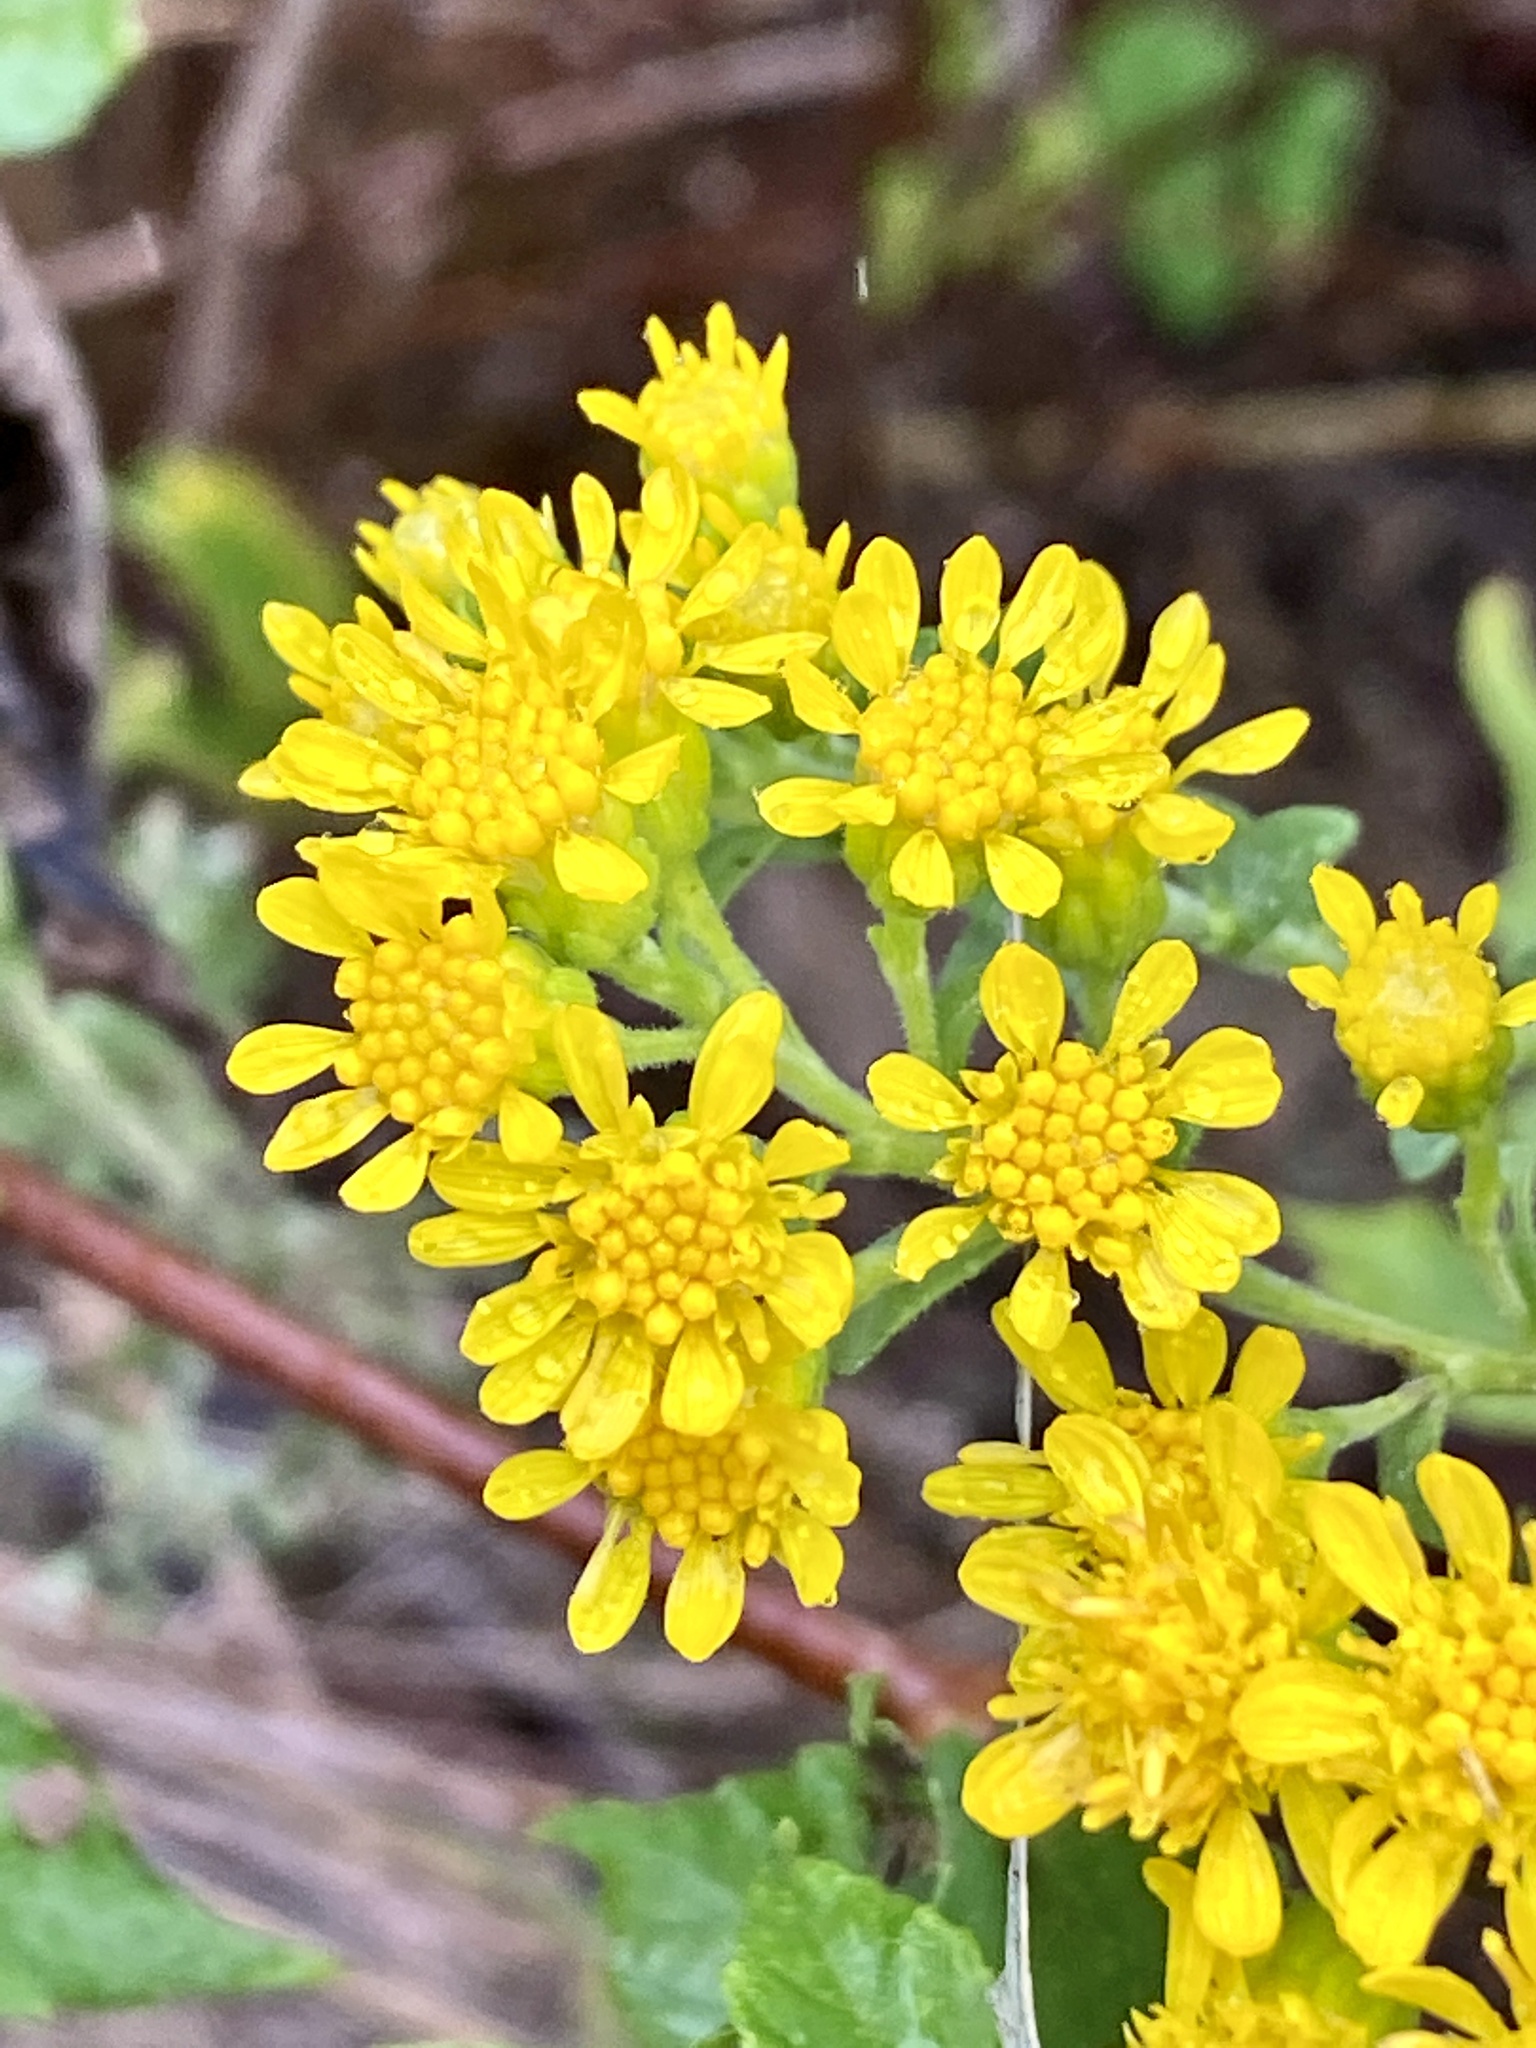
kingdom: Plantae
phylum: Tracheophyta
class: Magnoliopsida
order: Asterales
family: Asteraceae
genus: Solidago
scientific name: Solidago rigida
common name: Rigid goldenrod
